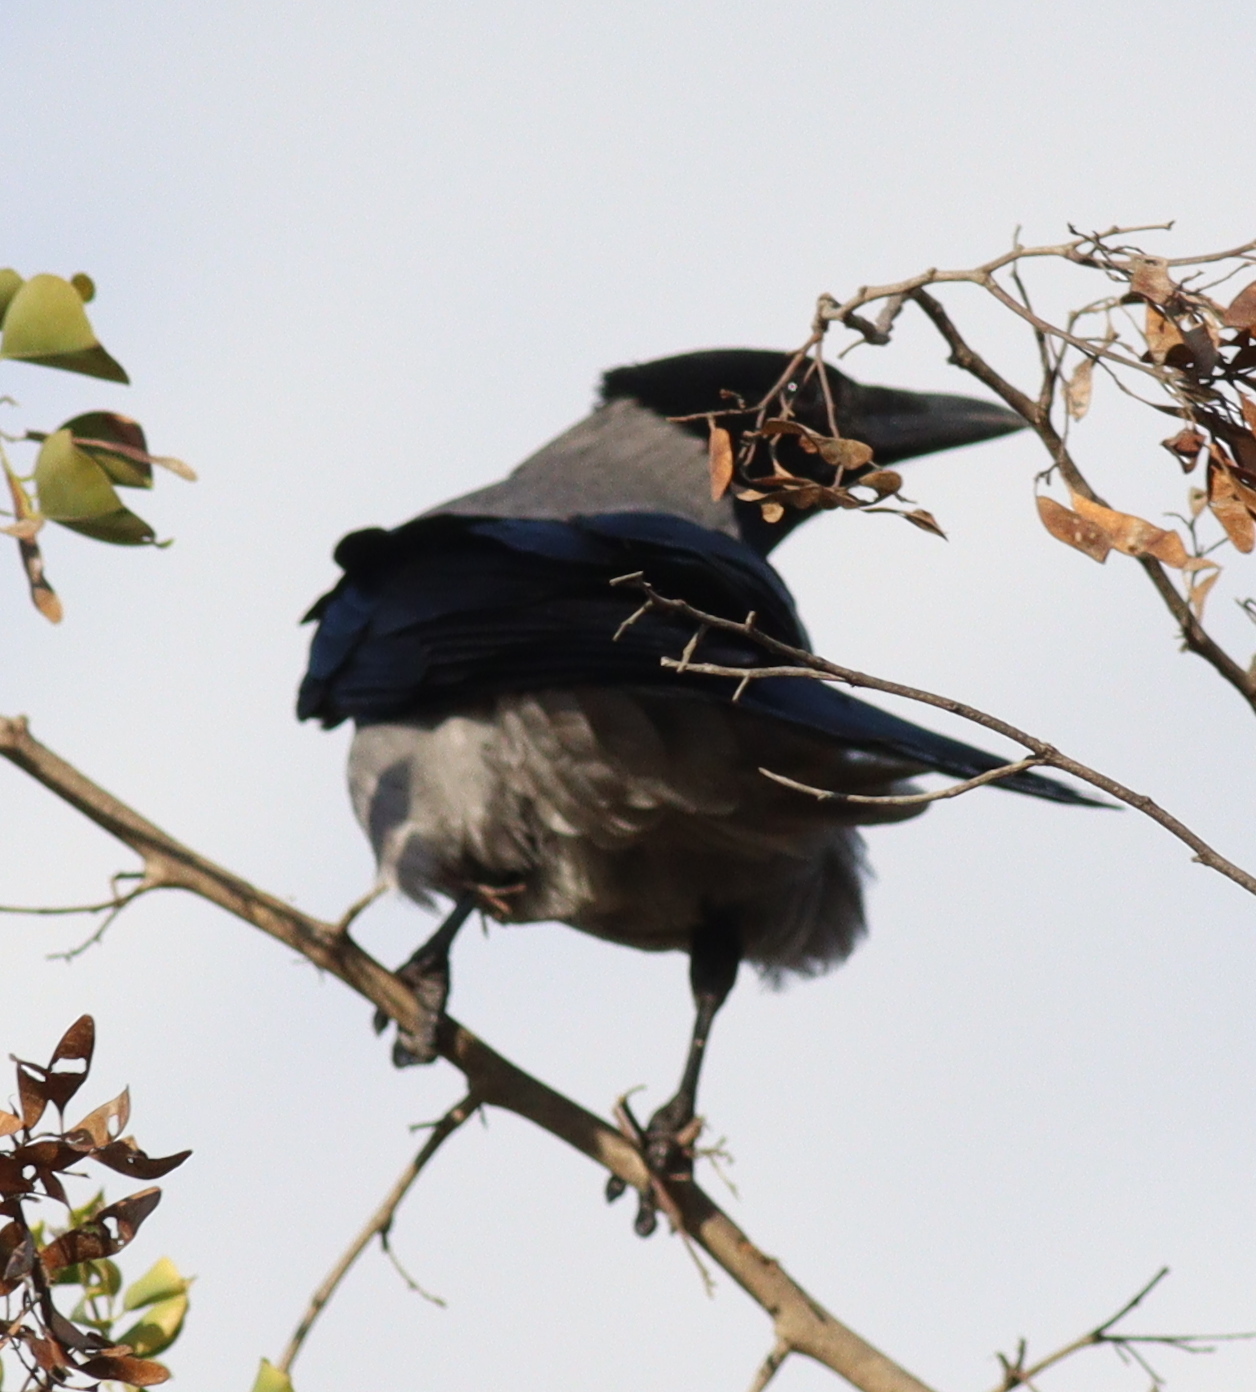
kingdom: Animalia
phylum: Chordata
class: Aves
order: Passeriformes
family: Corvidae
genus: Corvus
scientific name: Corvus cornix
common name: Hooded crow
